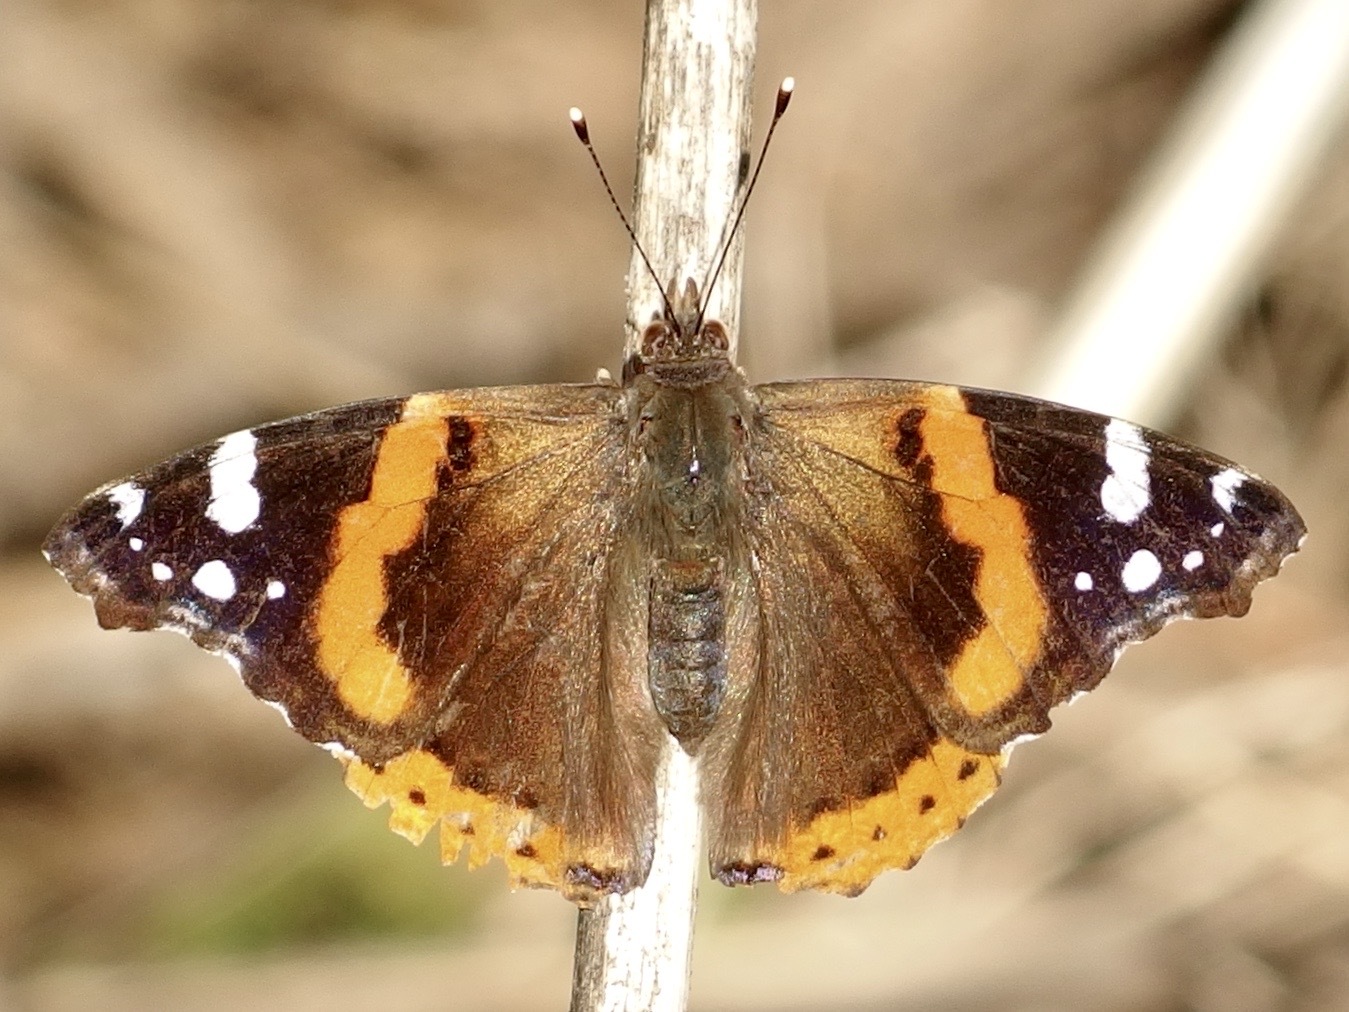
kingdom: Animalia
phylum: Arthropoda
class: Insecta
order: Lepidoptera
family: Nymphalidae
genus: Vanessa
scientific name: Vanessa atalanta
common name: Red admiral
